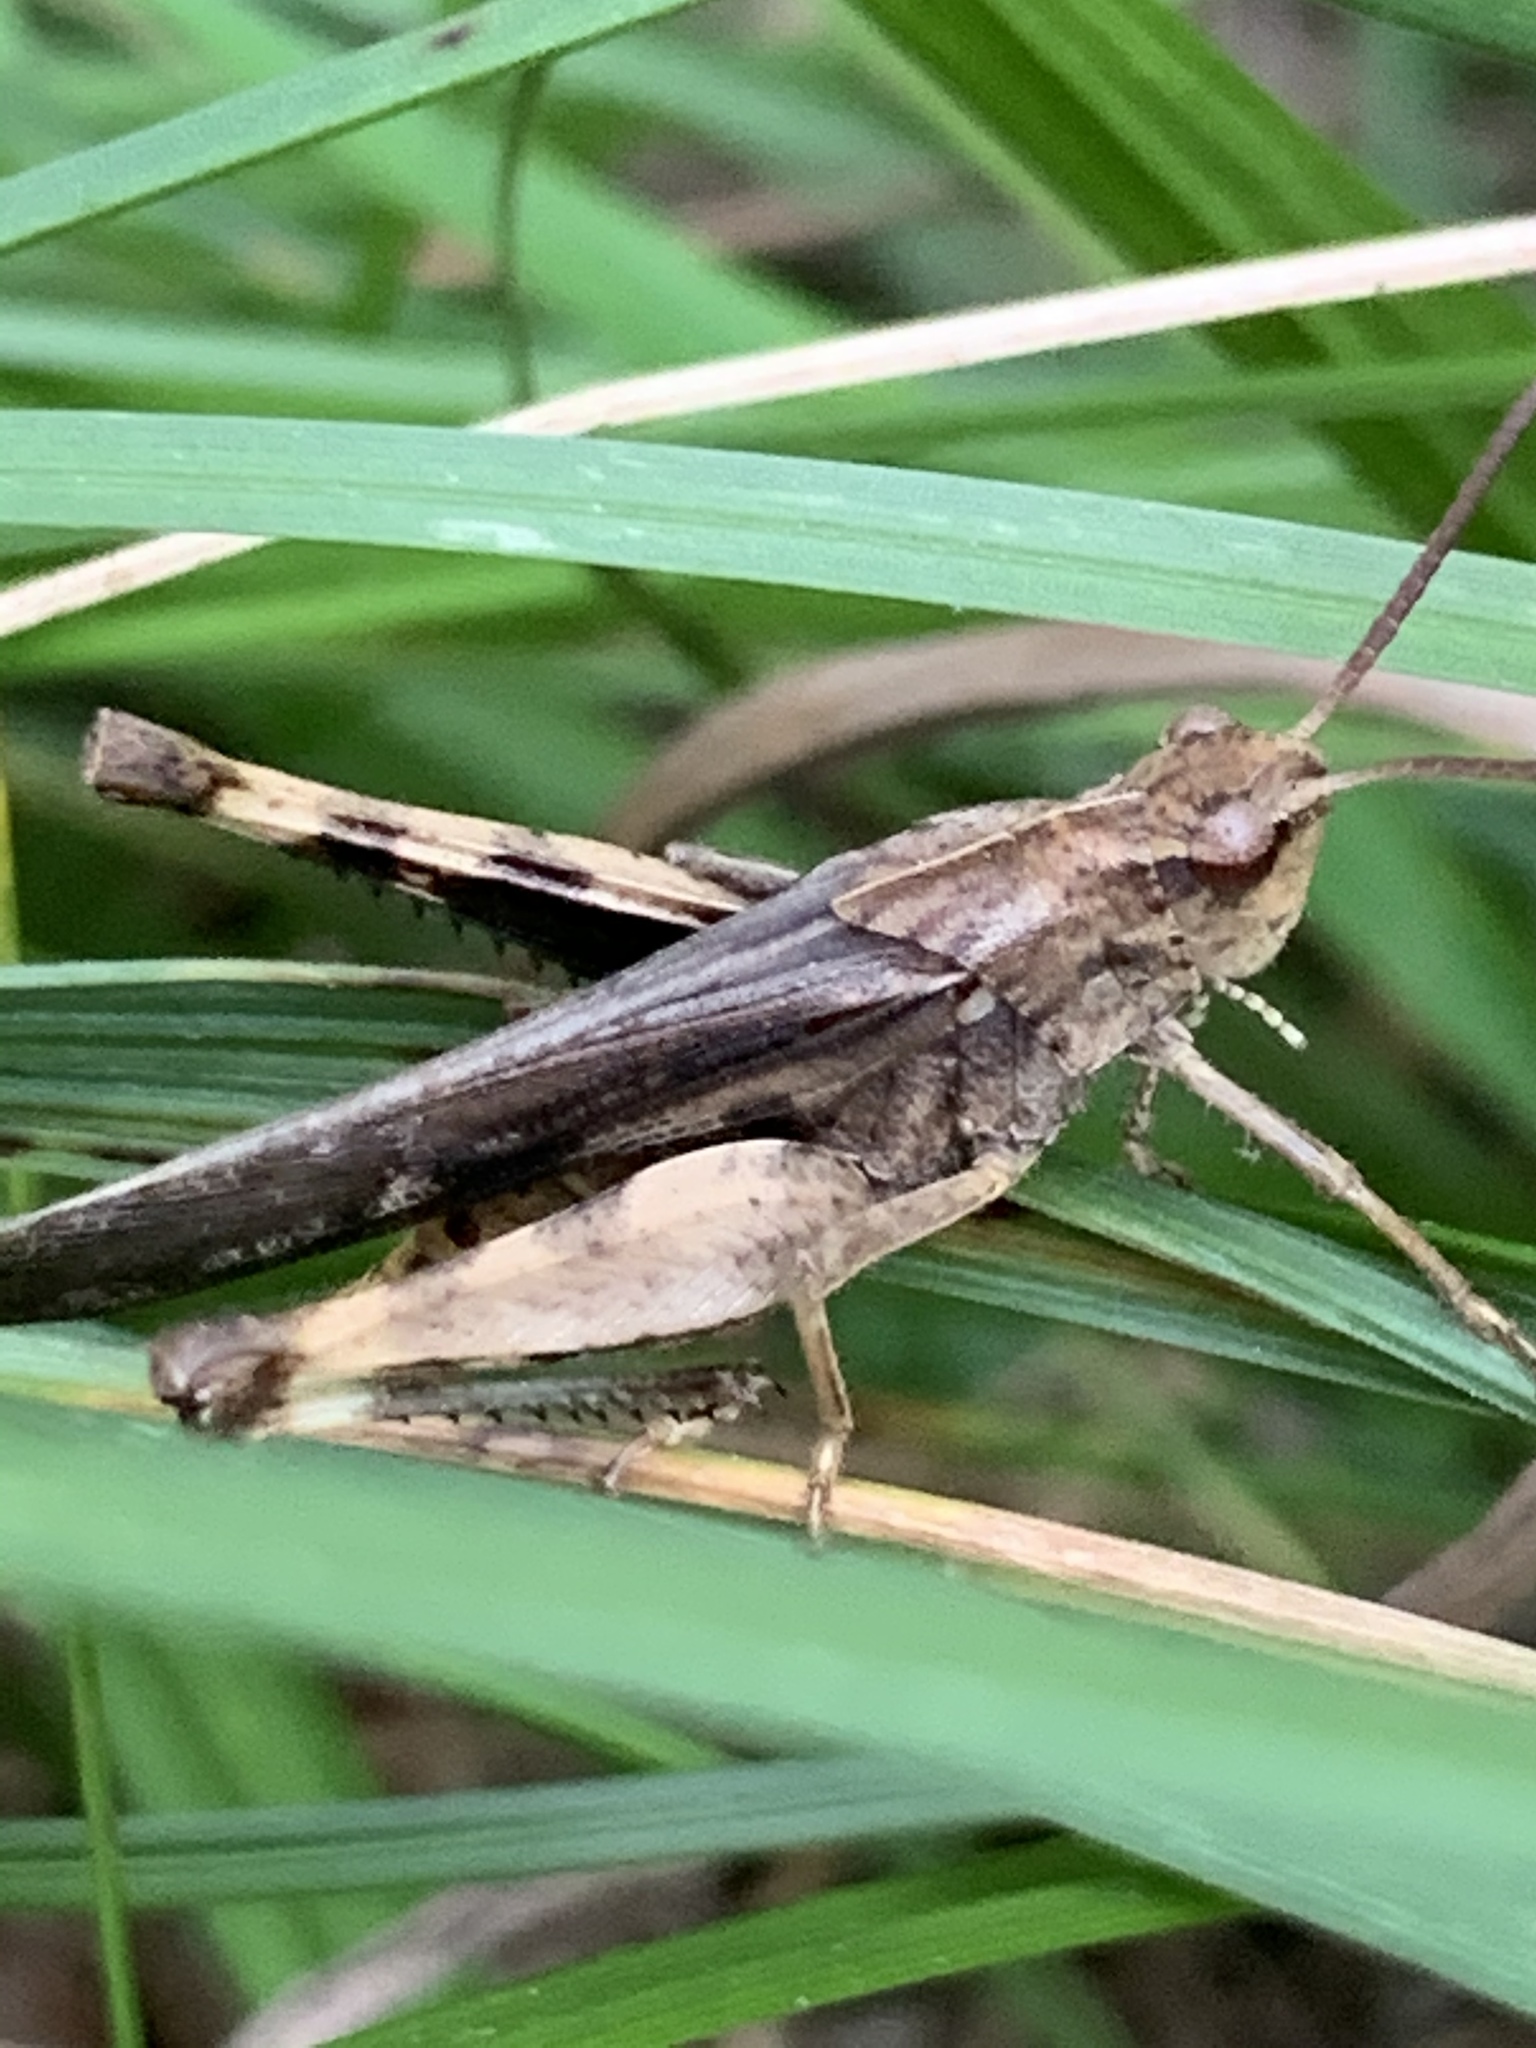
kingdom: Animalia
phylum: Arthropoda
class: Insecta
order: Orthoptera
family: Acrididae
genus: Chortophaga
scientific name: Chortophaga viridifasciata
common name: Green-striped grasshopper
